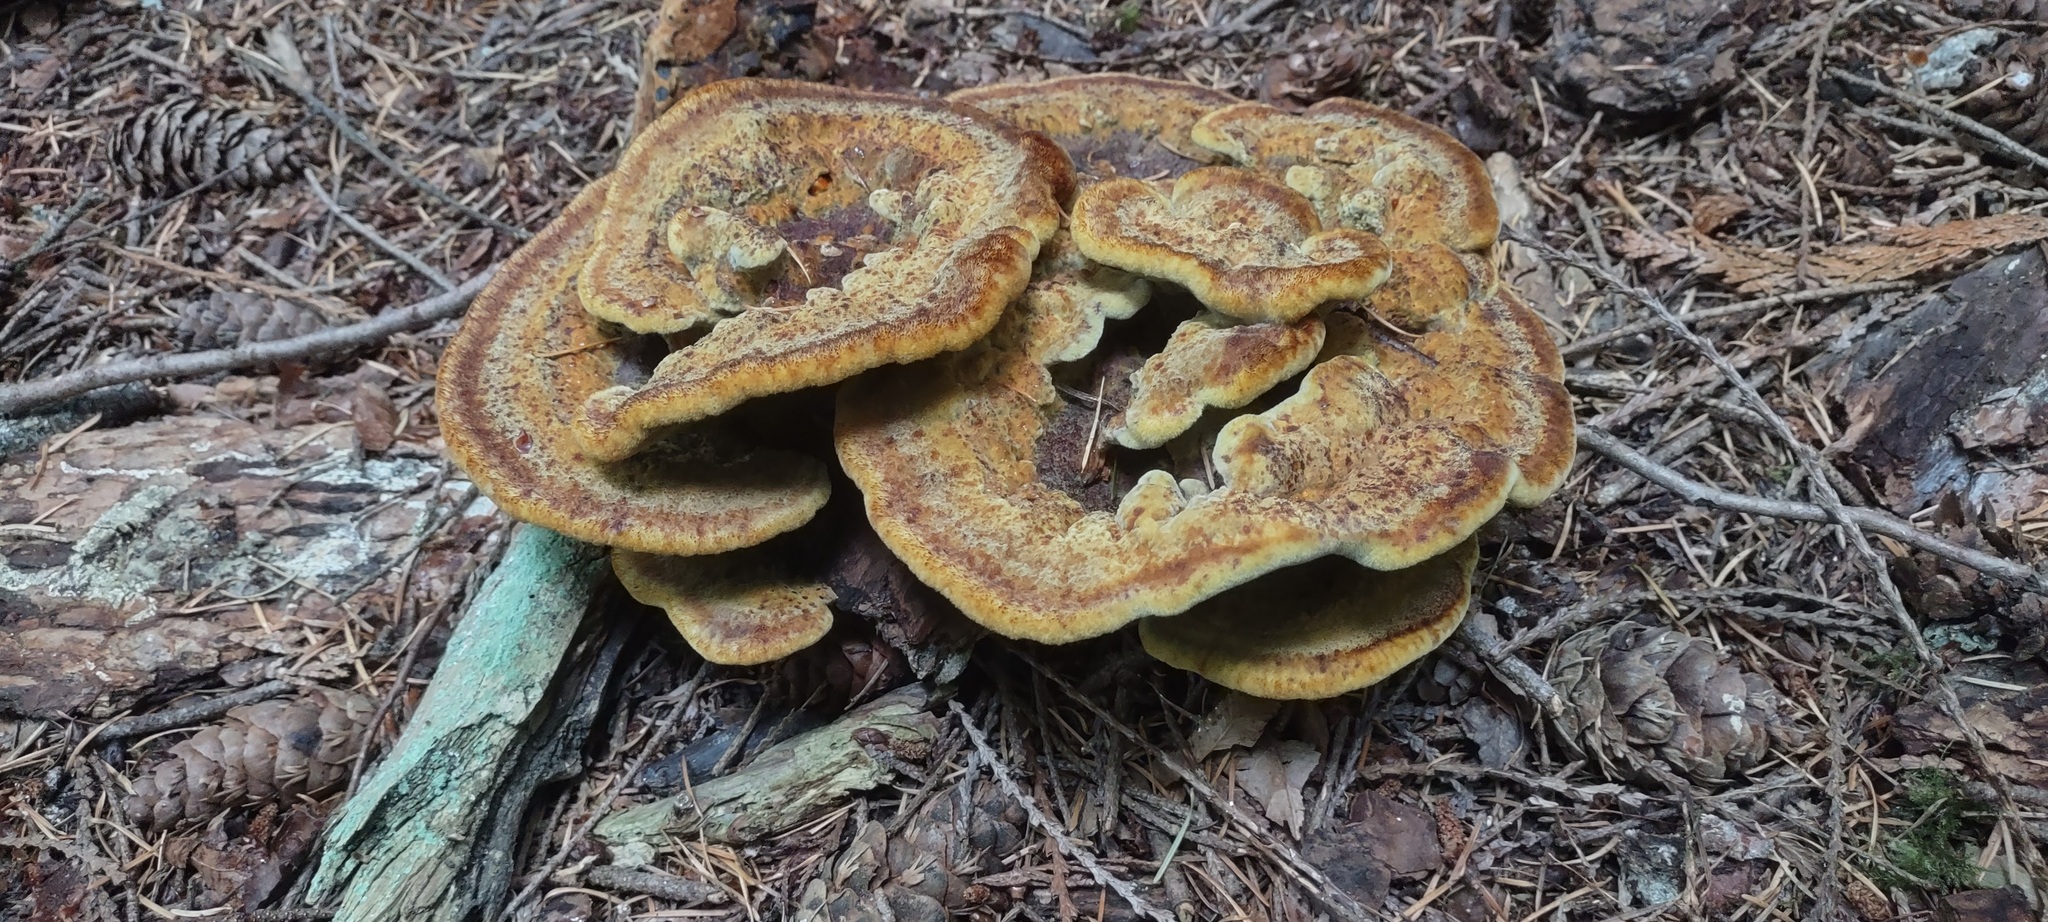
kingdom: Fungi
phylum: Basidiomycota
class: Agaricomycetes
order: Polyporales
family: Laetiporaceae
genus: Phaeolus
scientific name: Phaeolus schweinitzii
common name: Dyer's mazegill
